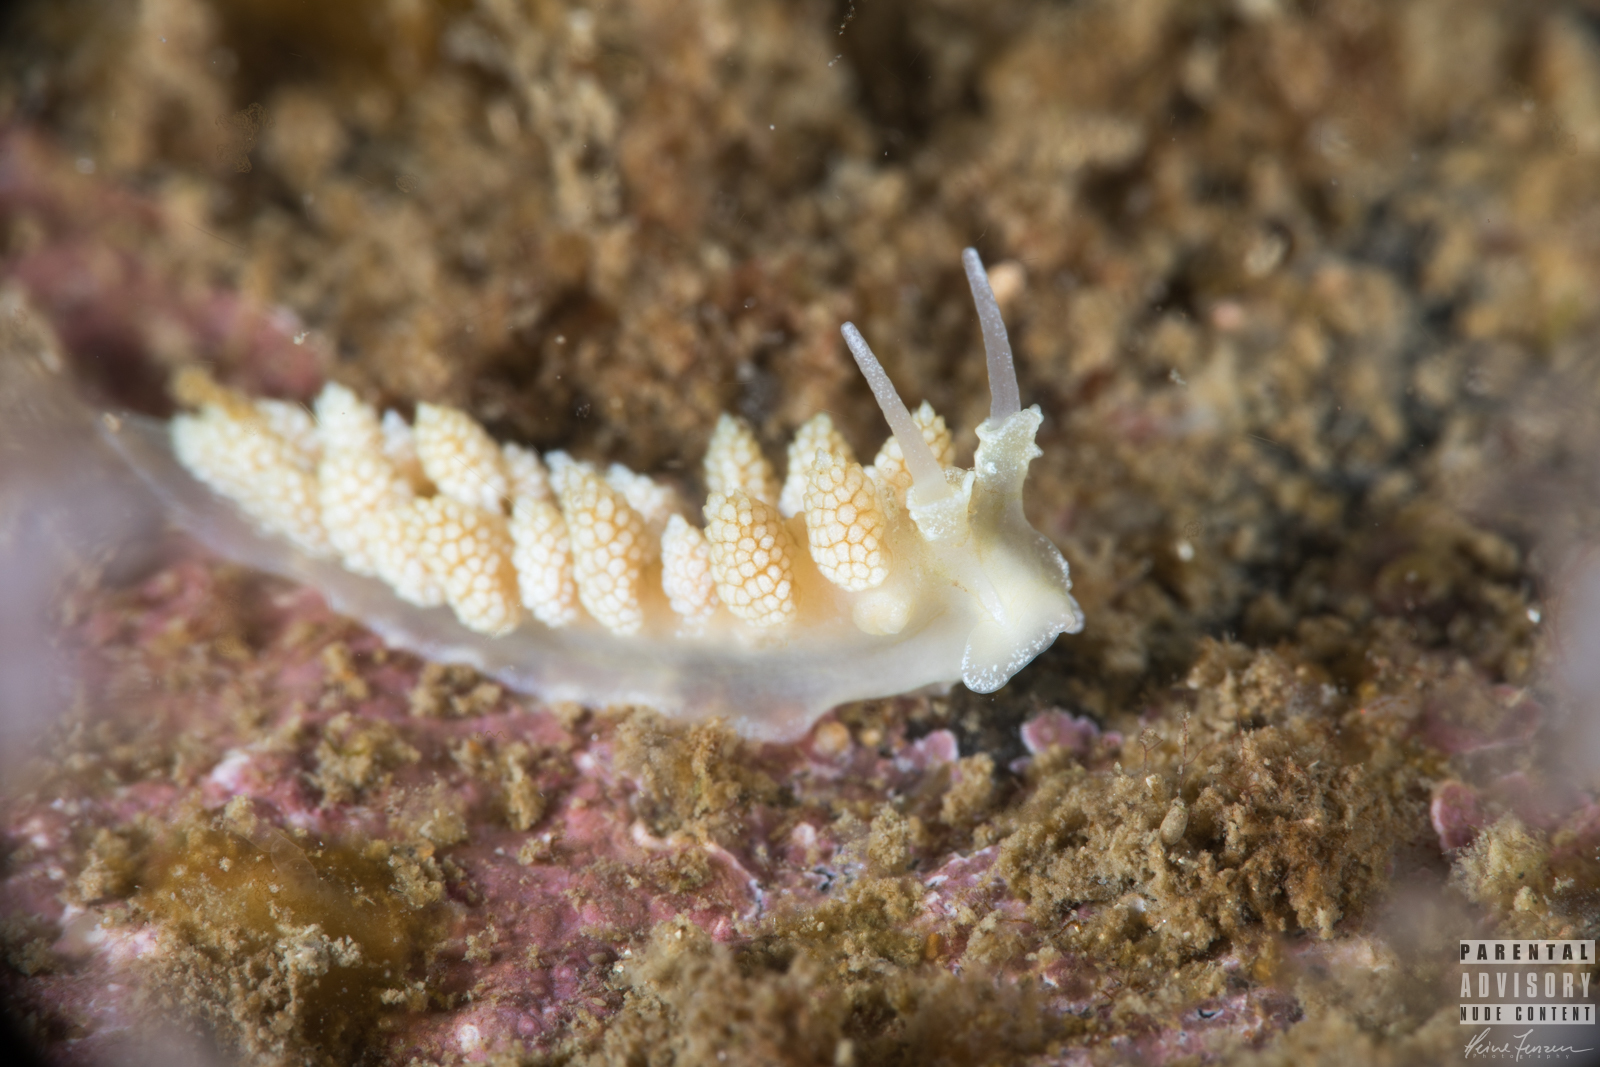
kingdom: Animalia
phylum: Mollusca
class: Gastropoda
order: Nudibranchia
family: Dotidae
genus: Doto
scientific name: Doto fragilis
